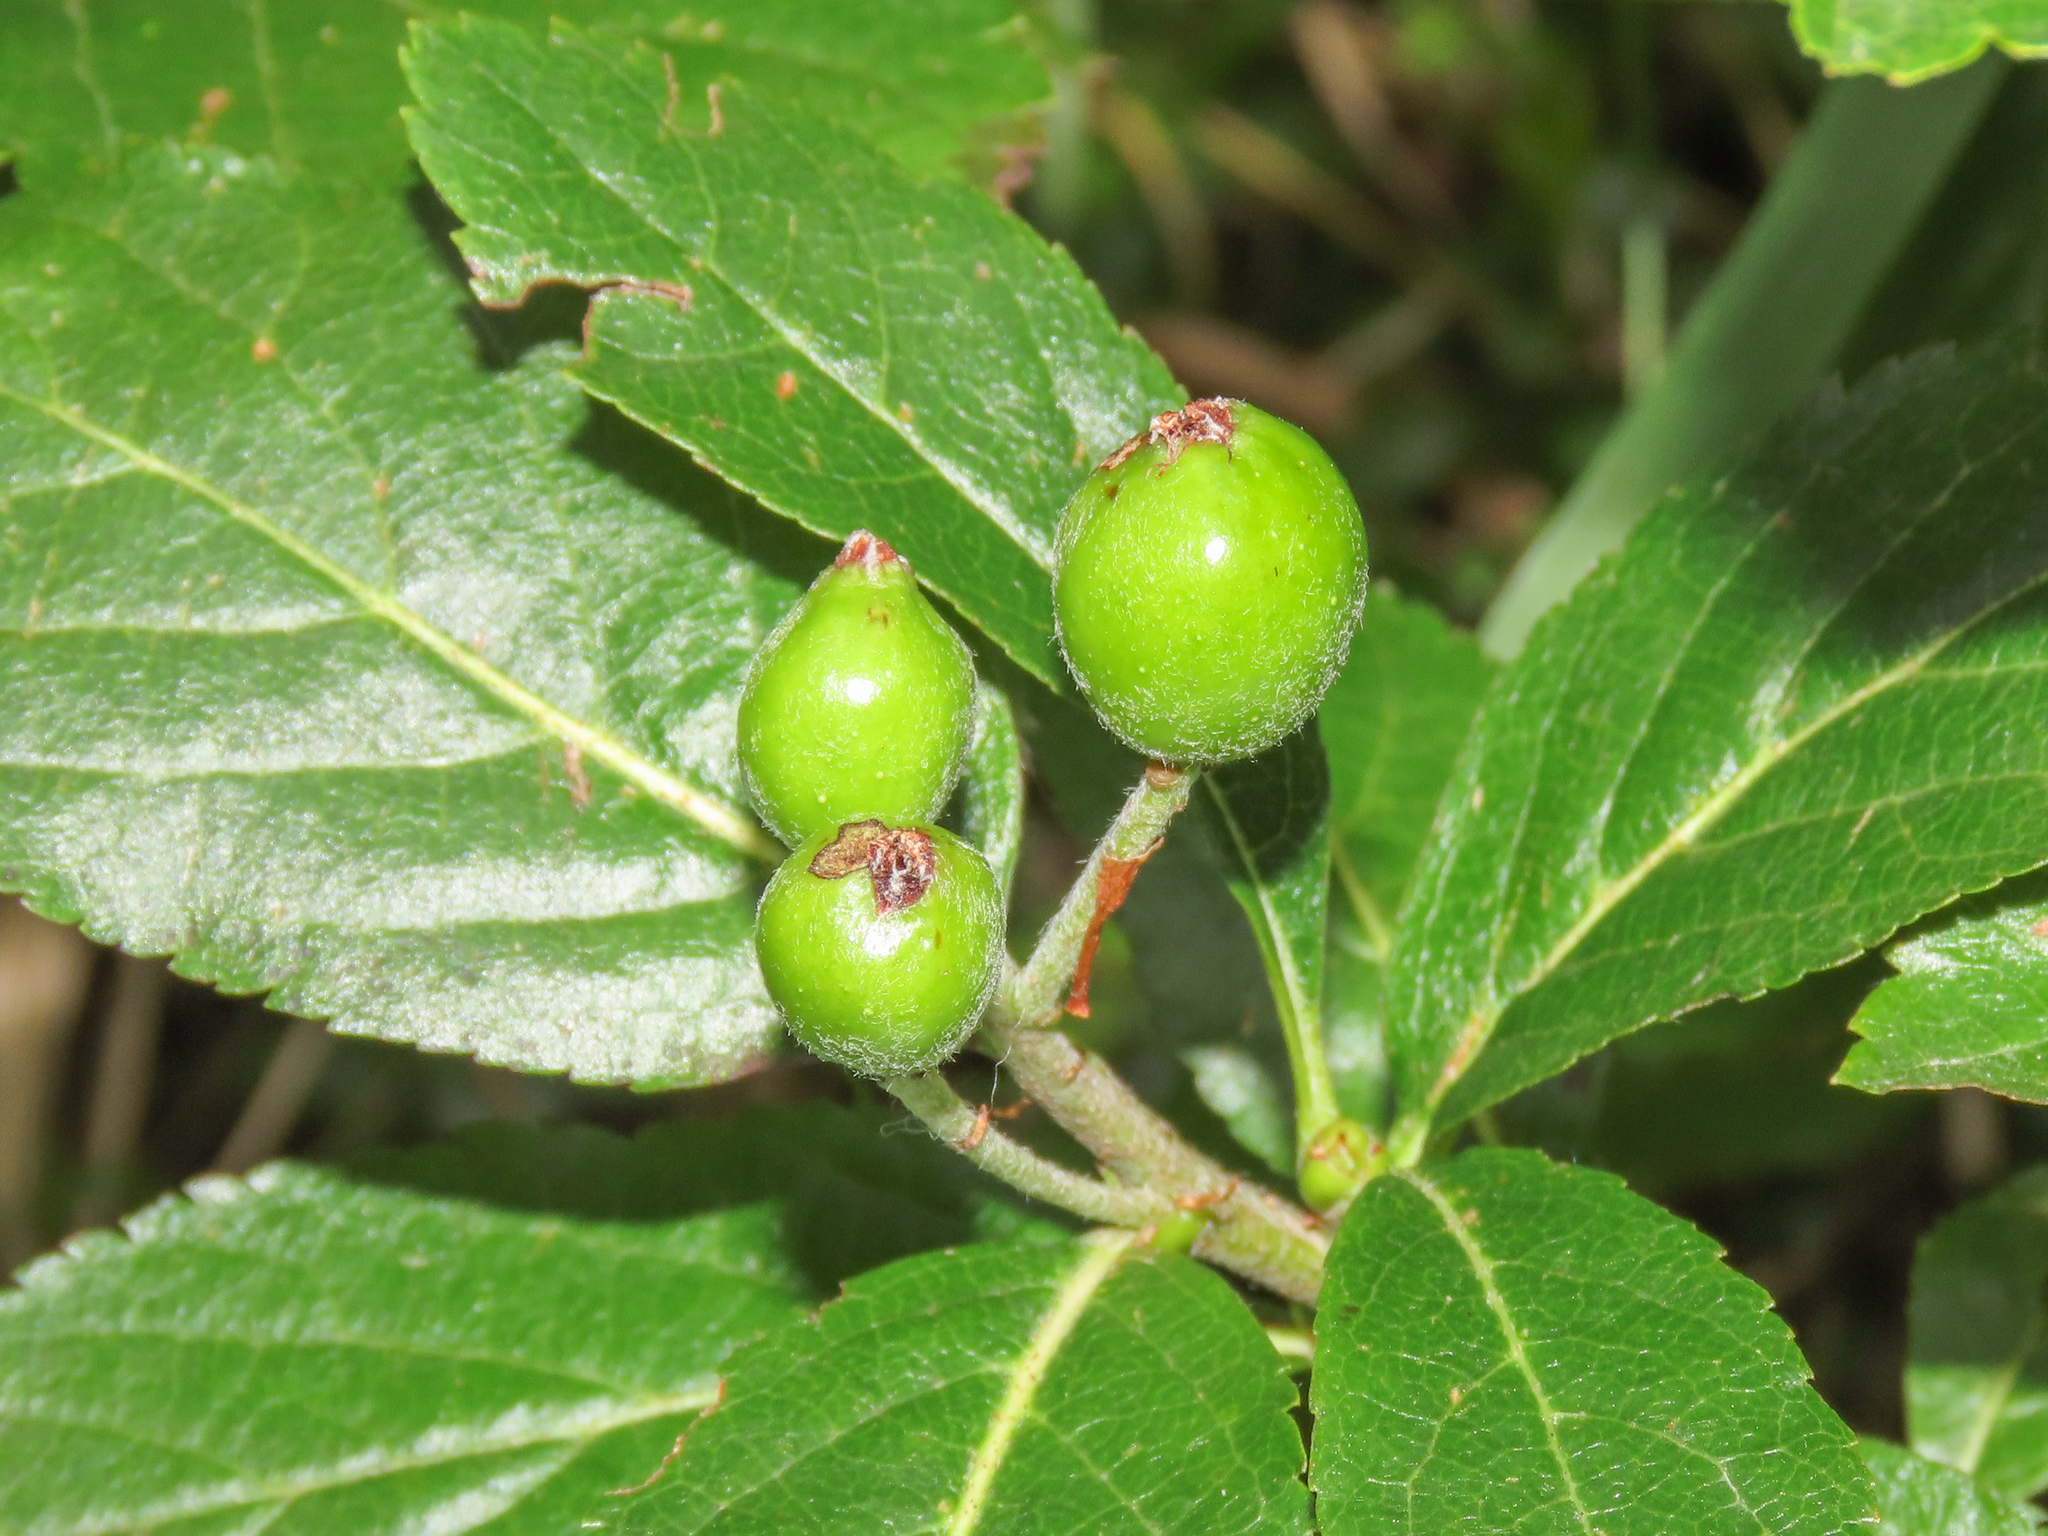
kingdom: Plantae
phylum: Tracheophyta
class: Magnoliopsida
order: Rosales
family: Rosaceae
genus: Chamaemespilus
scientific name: Chamaemespilus alpina
